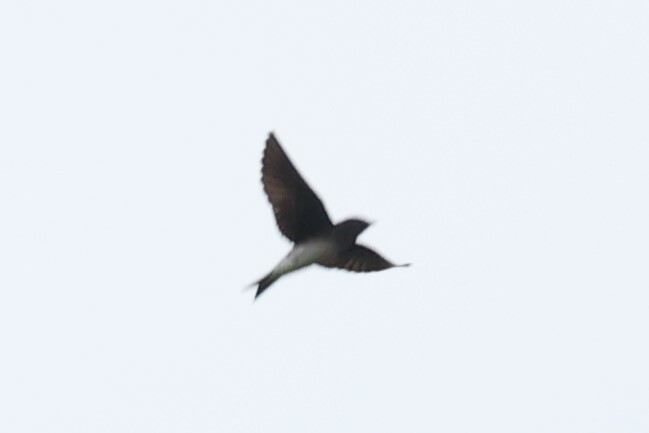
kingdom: Animalia
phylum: Chordata
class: Aves
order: Passeriformes
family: Hirundinidae
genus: Progne
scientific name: Progne chalybea
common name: Grey-breasted martin
